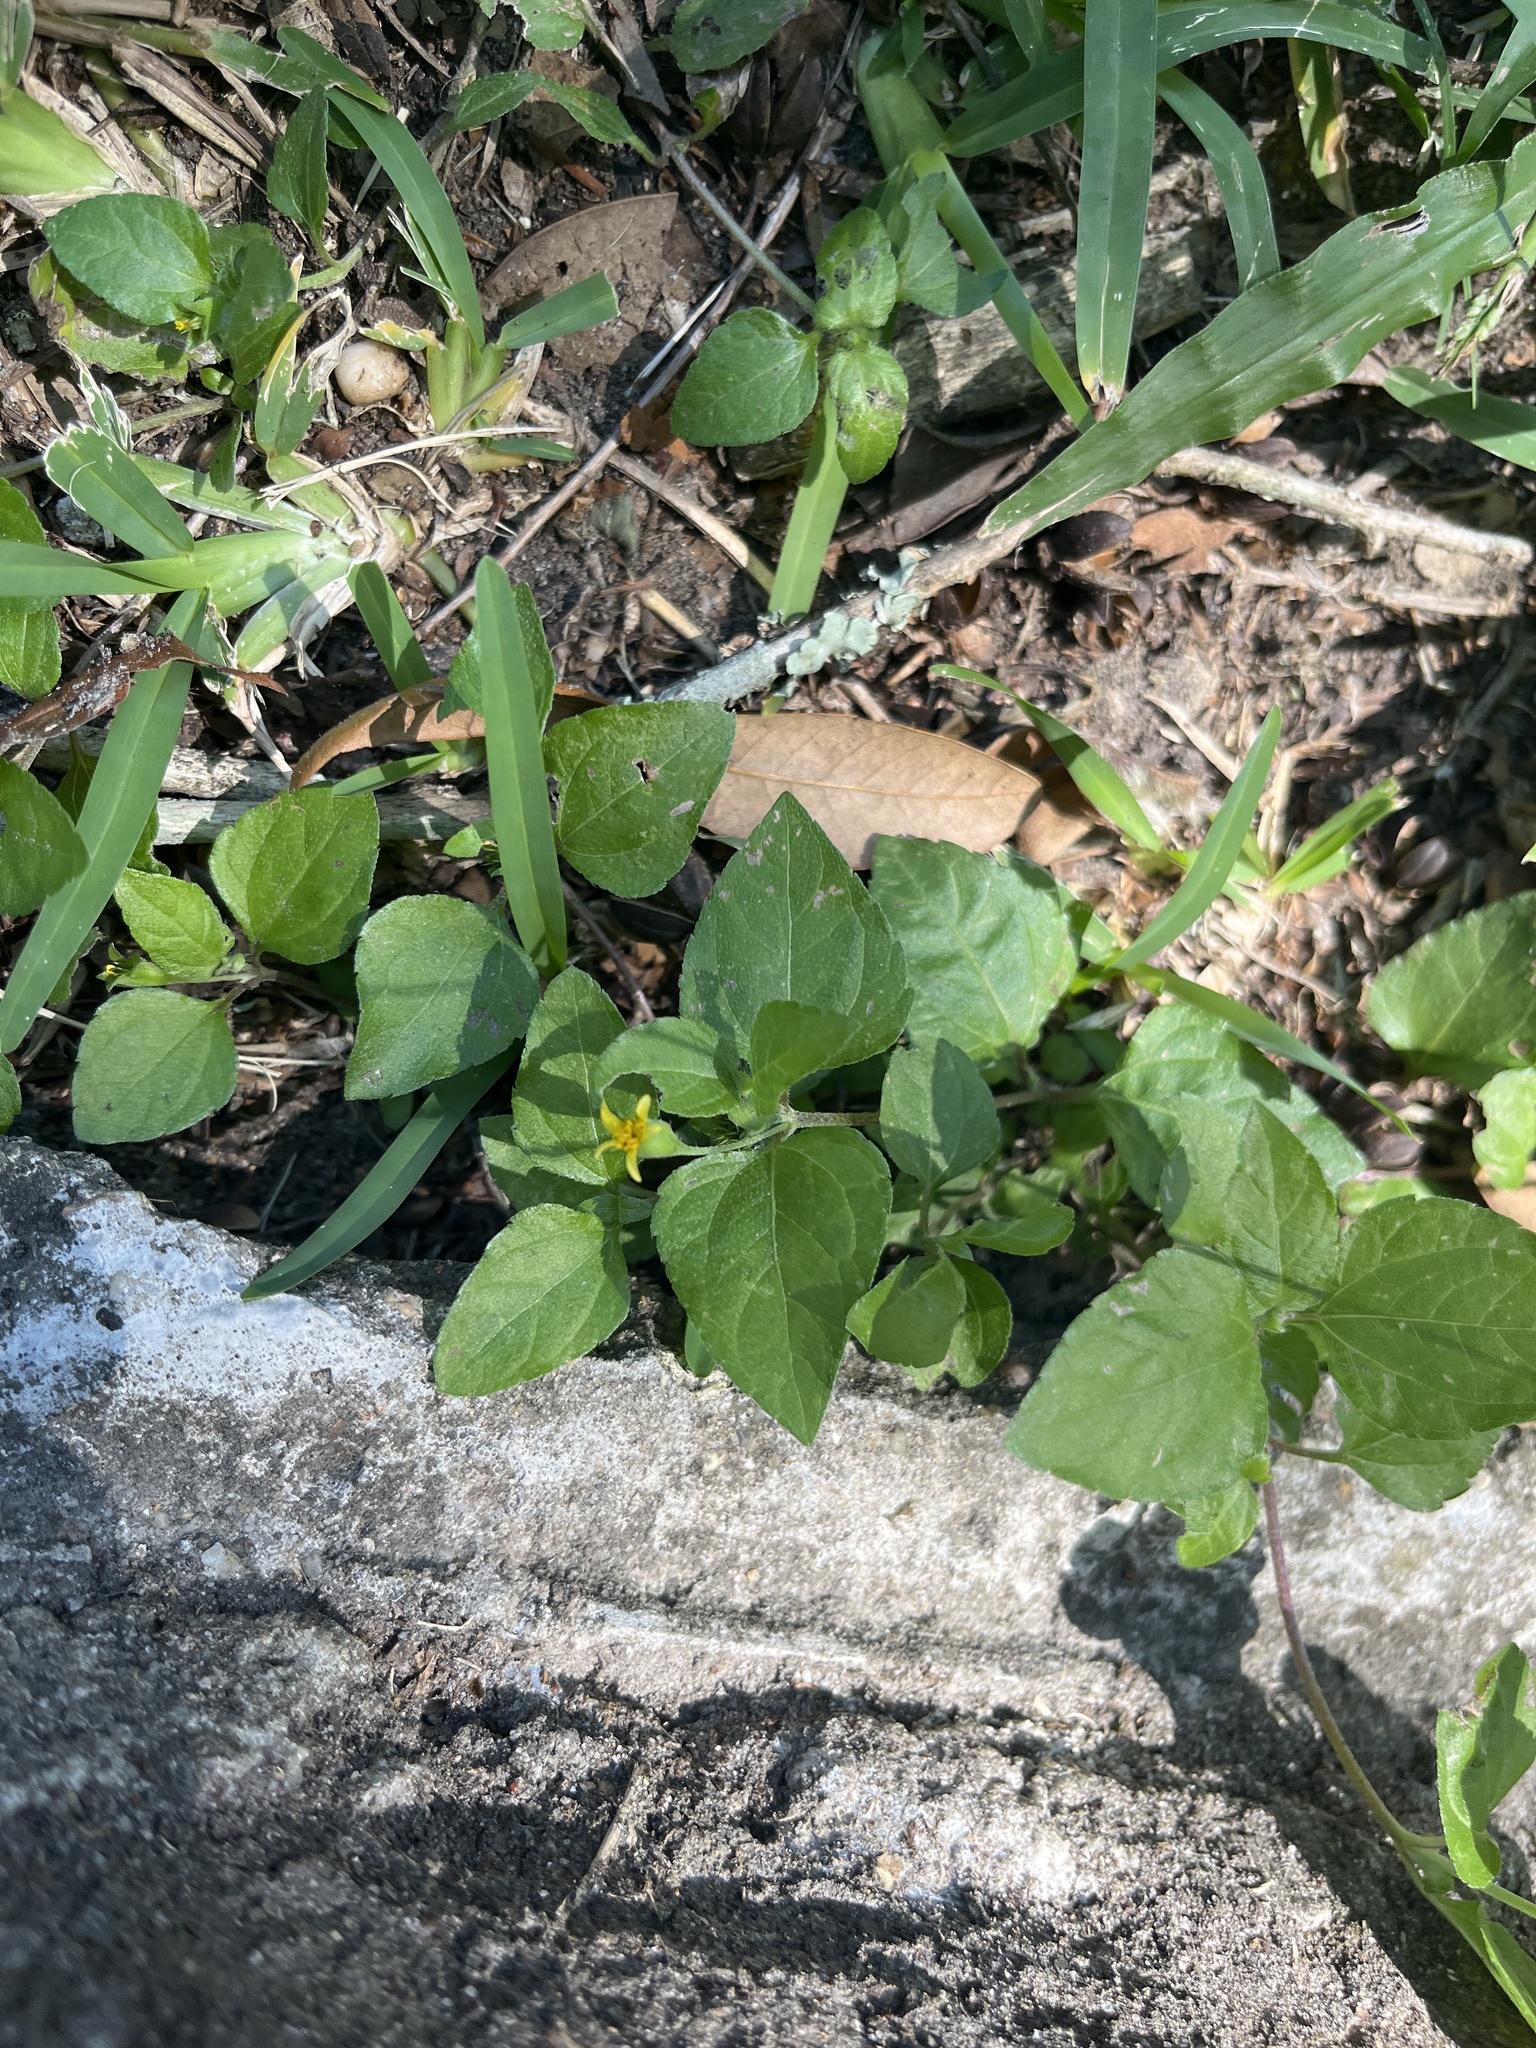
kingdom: Plantae
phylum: Tracheophyta
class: Magnoliopsida
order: Asterales
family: Asteraceae
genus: Calyptocarpus
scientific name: Calyptocarpus vialis
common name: Straggler daisy
